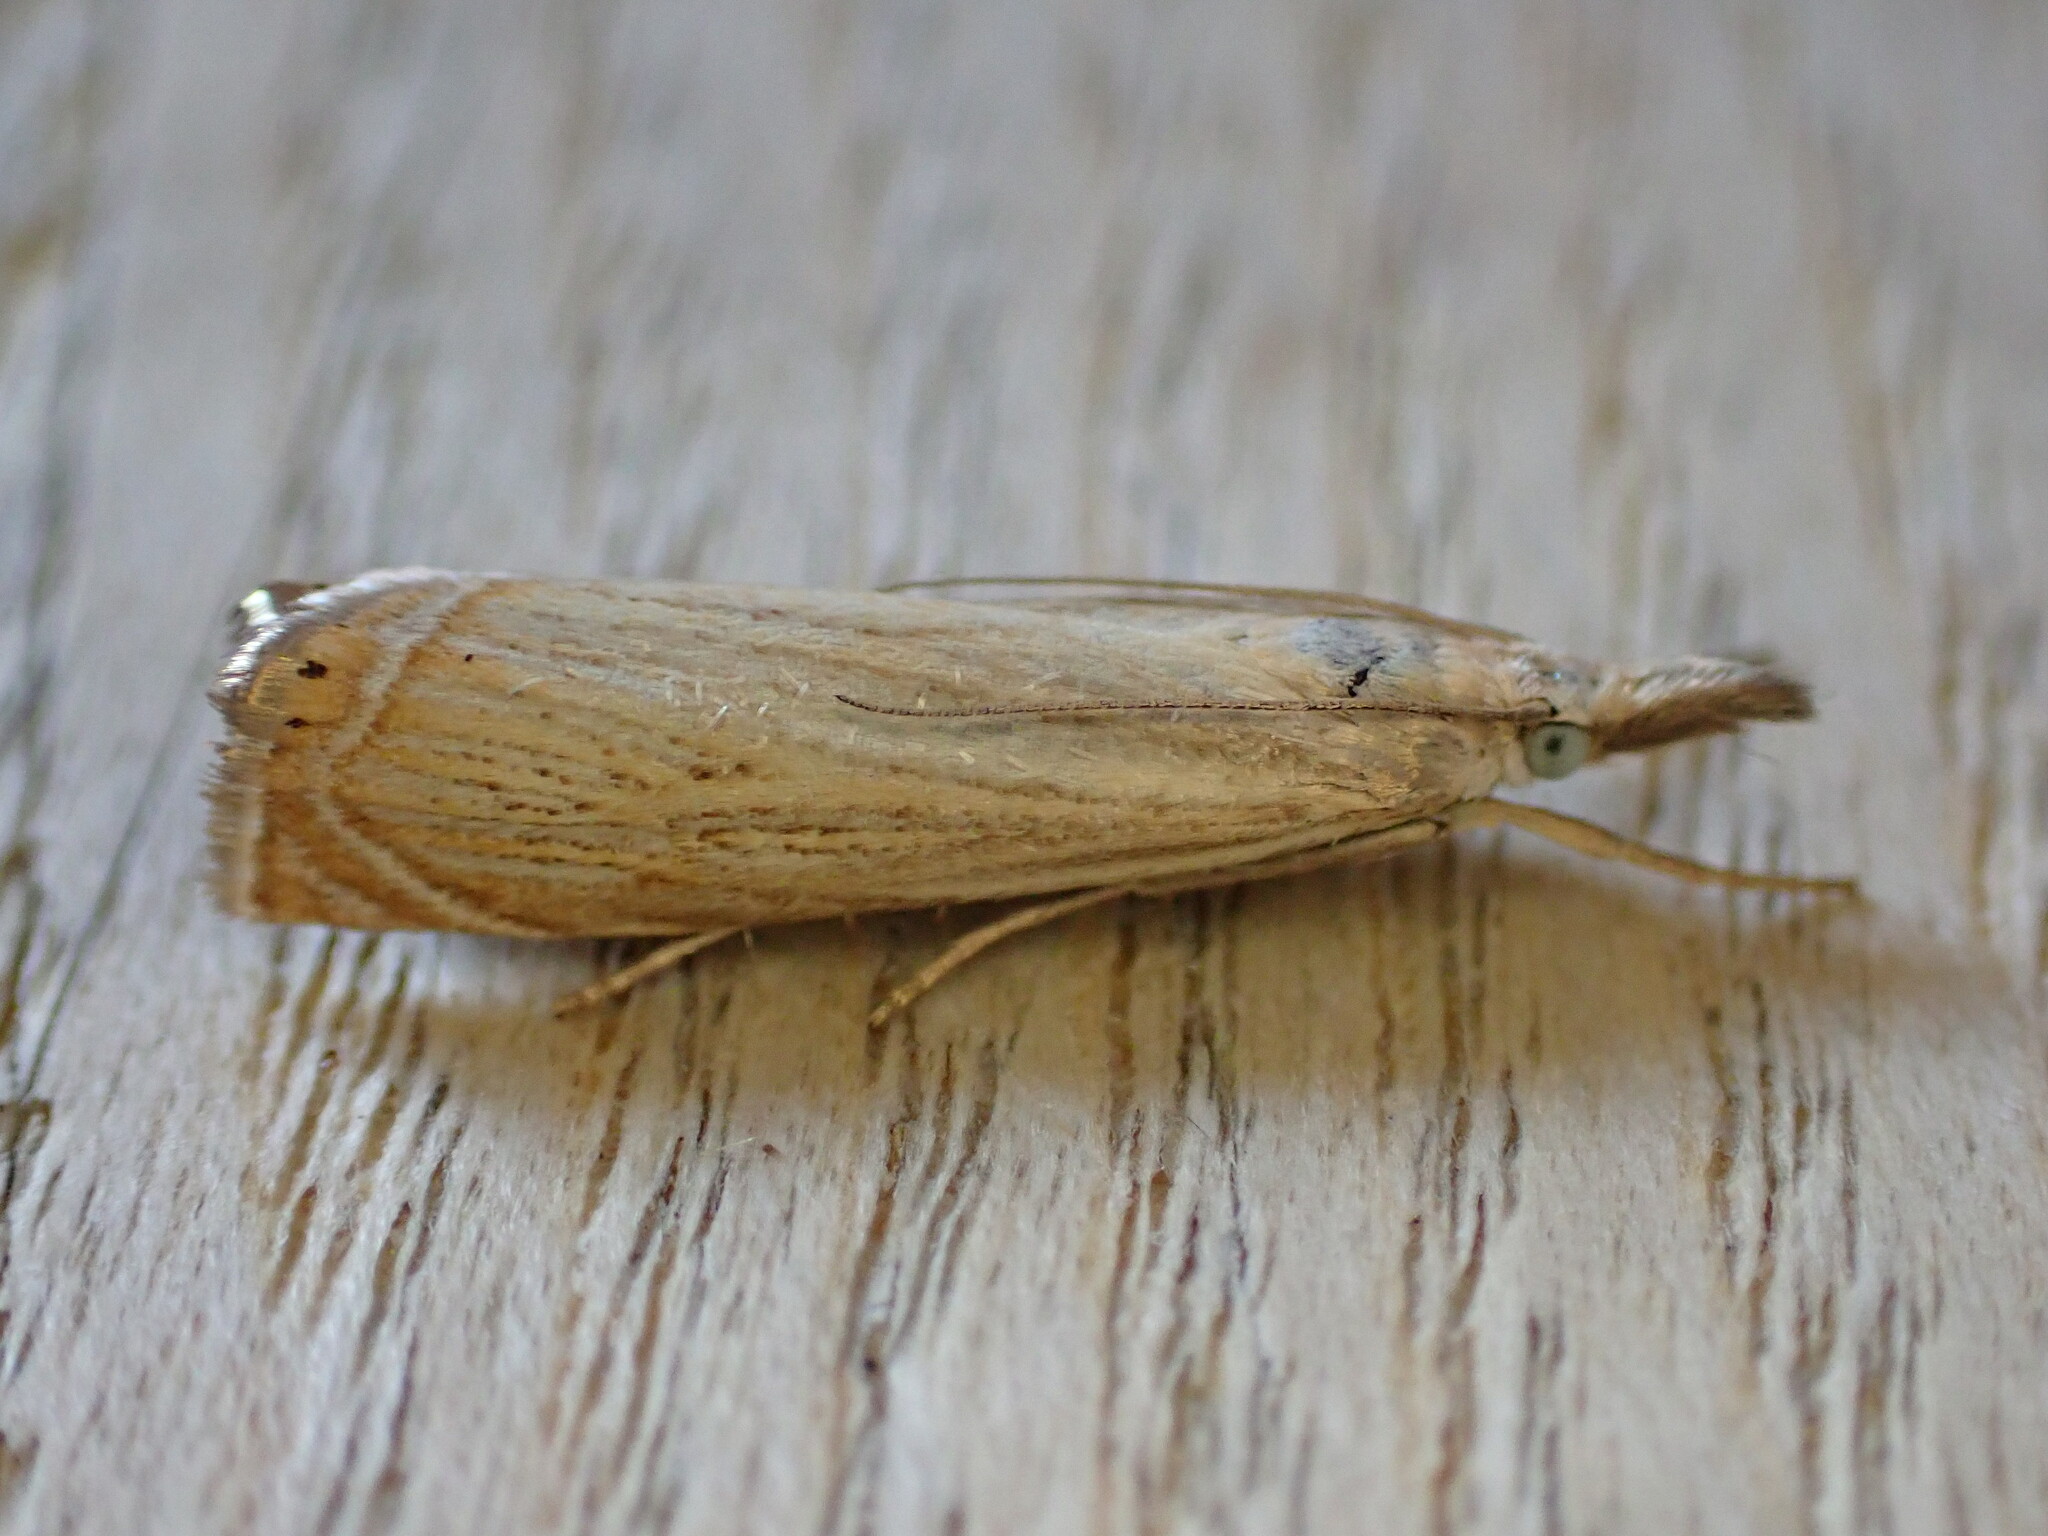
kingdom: Animalia
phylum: Arthropoda
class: Insecta
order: Lepidoptera
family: Crambidae
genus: Chrysoteuchia
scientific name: Chrysoteuchia culmella
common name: Garden grass-veneer
